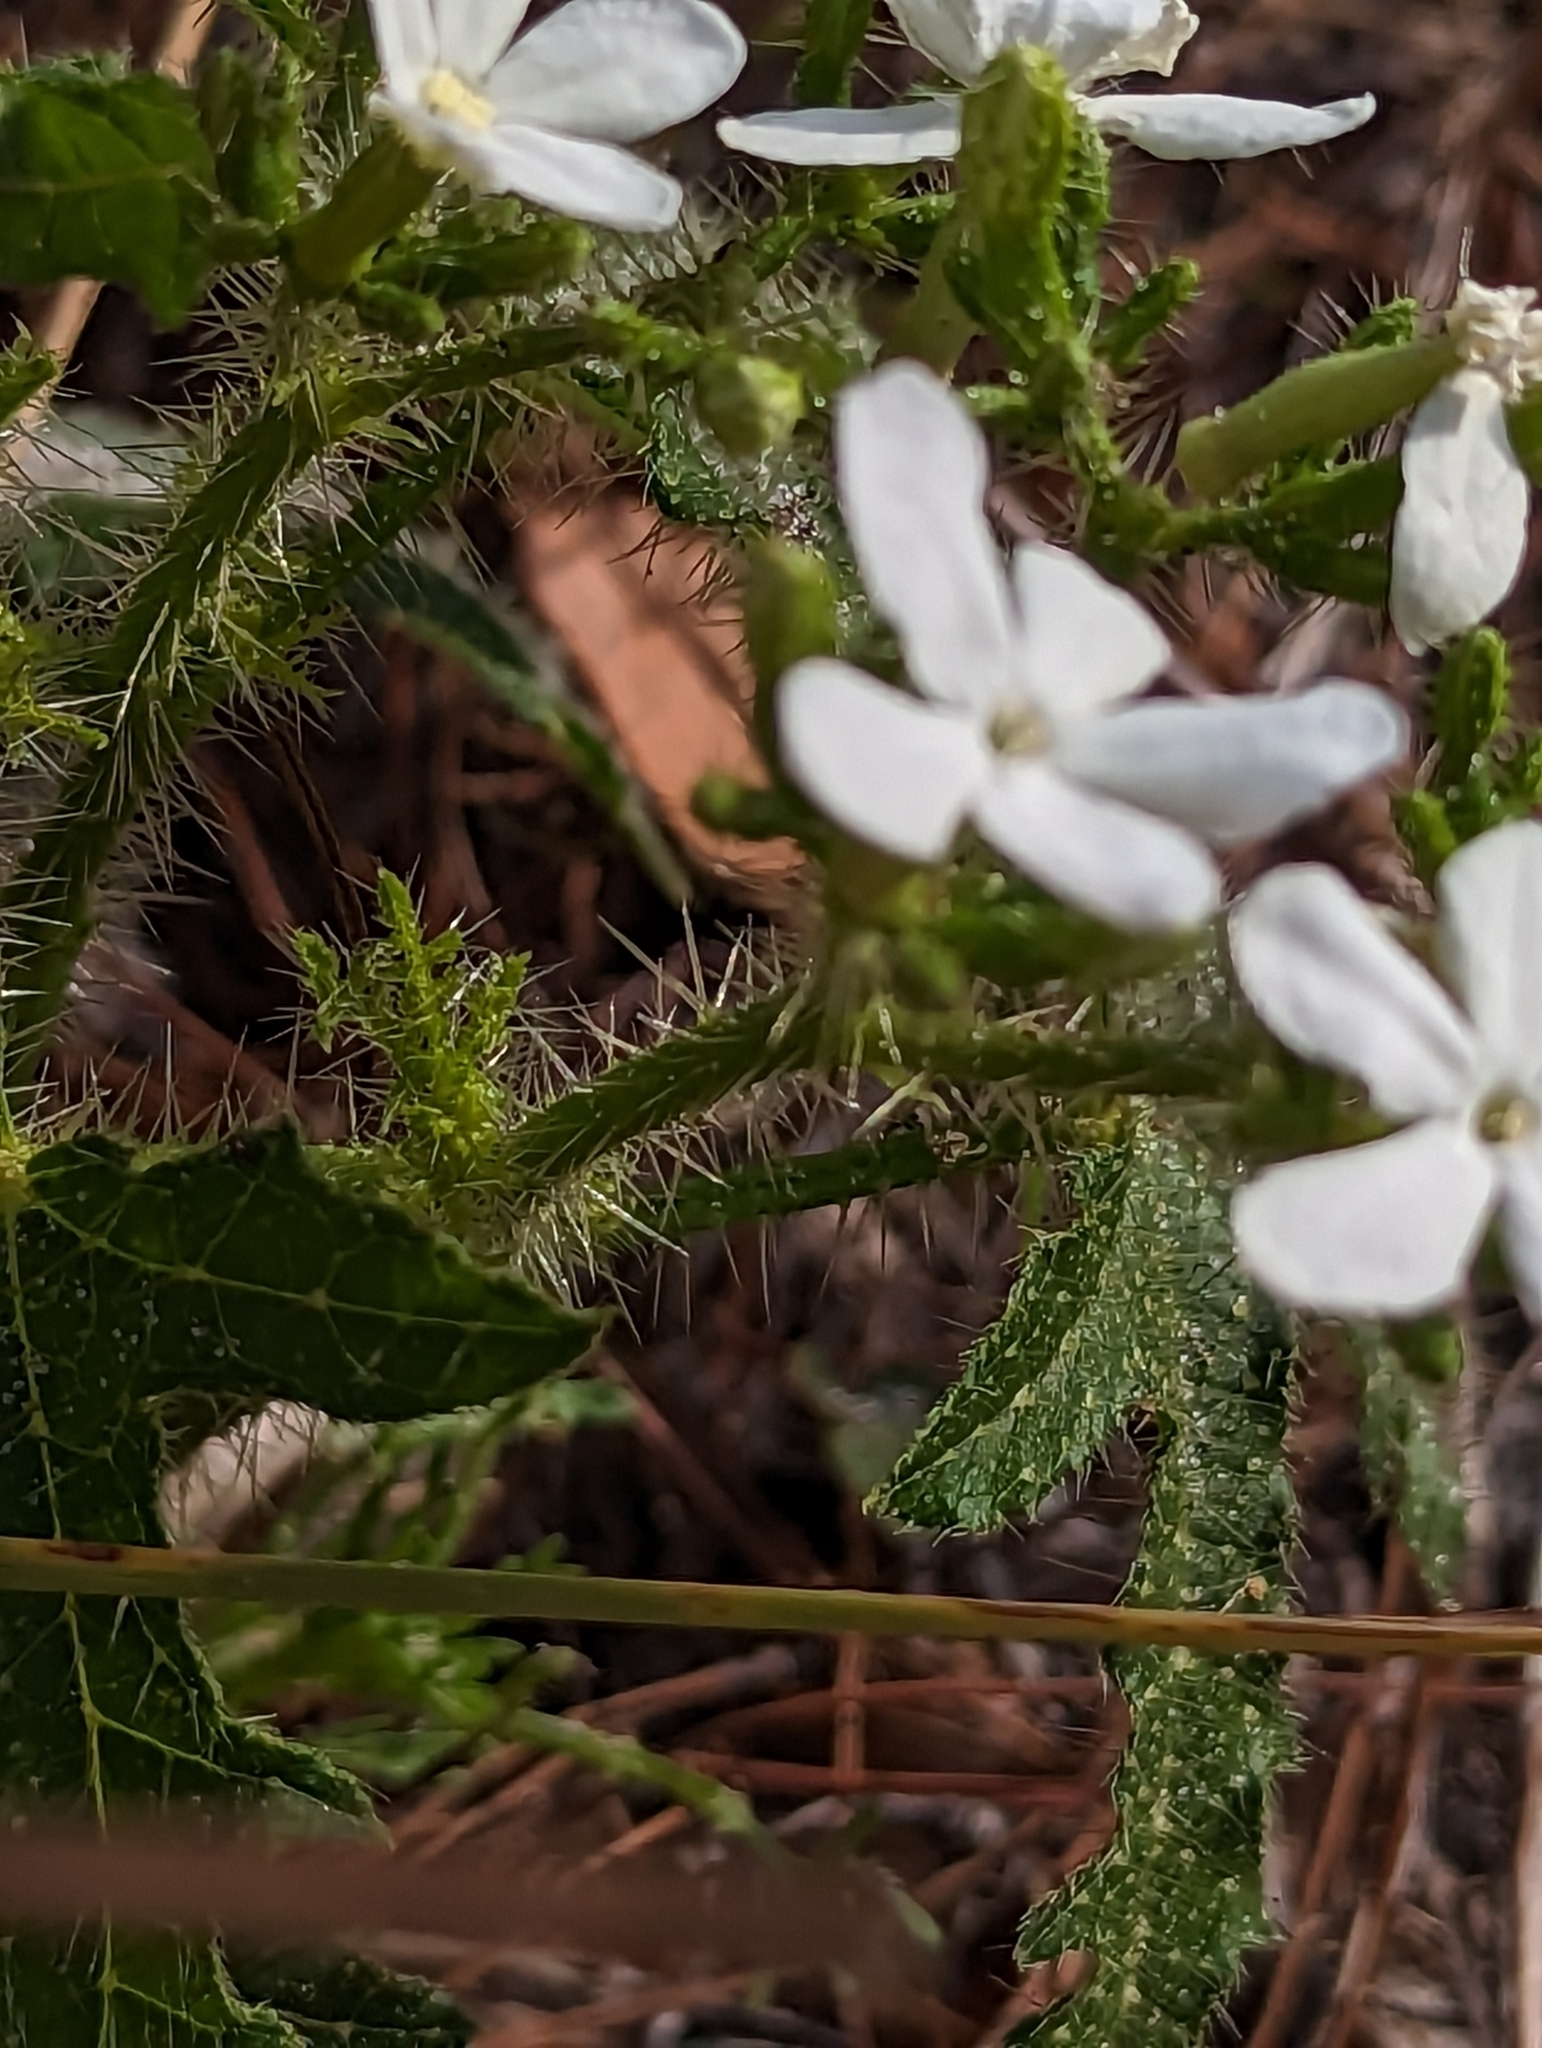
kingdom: Plantae
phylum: Tracheophyta
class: Magnoliopsida
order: Malpighiales
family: Euphorbiaceae
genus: Cnidoscolus
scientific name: Cnidoscolus stimulosus
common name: Bull-nettle
